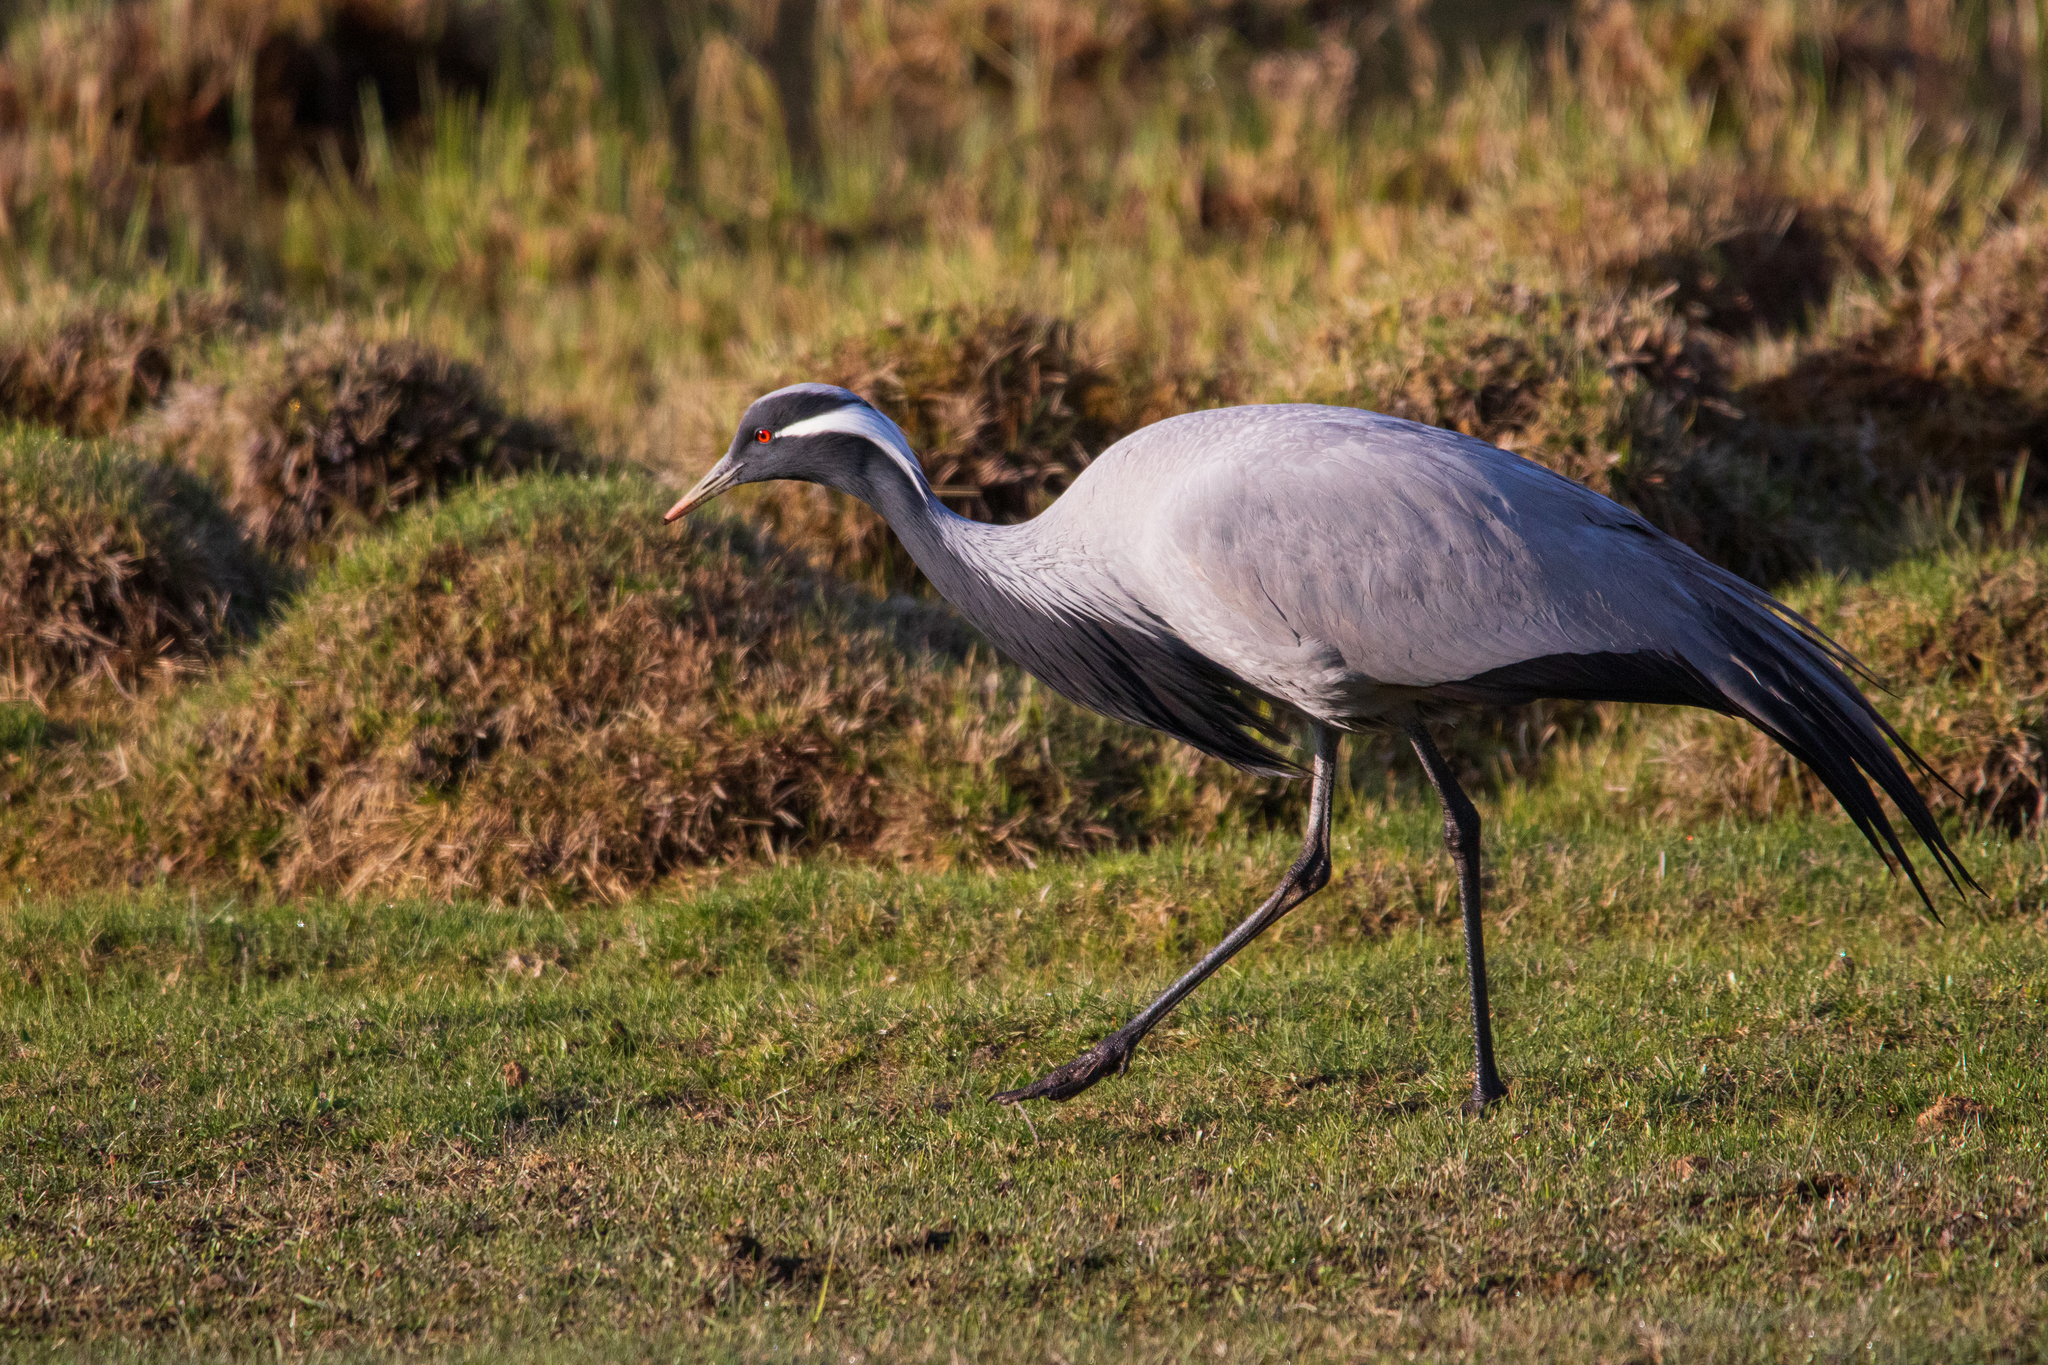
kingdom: Animalia
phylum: Chordata
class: Aves
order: Gruiformes
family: Gruidae
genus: Anthropoides
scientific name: Anthropoides virgo
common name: Demoiselle crane
